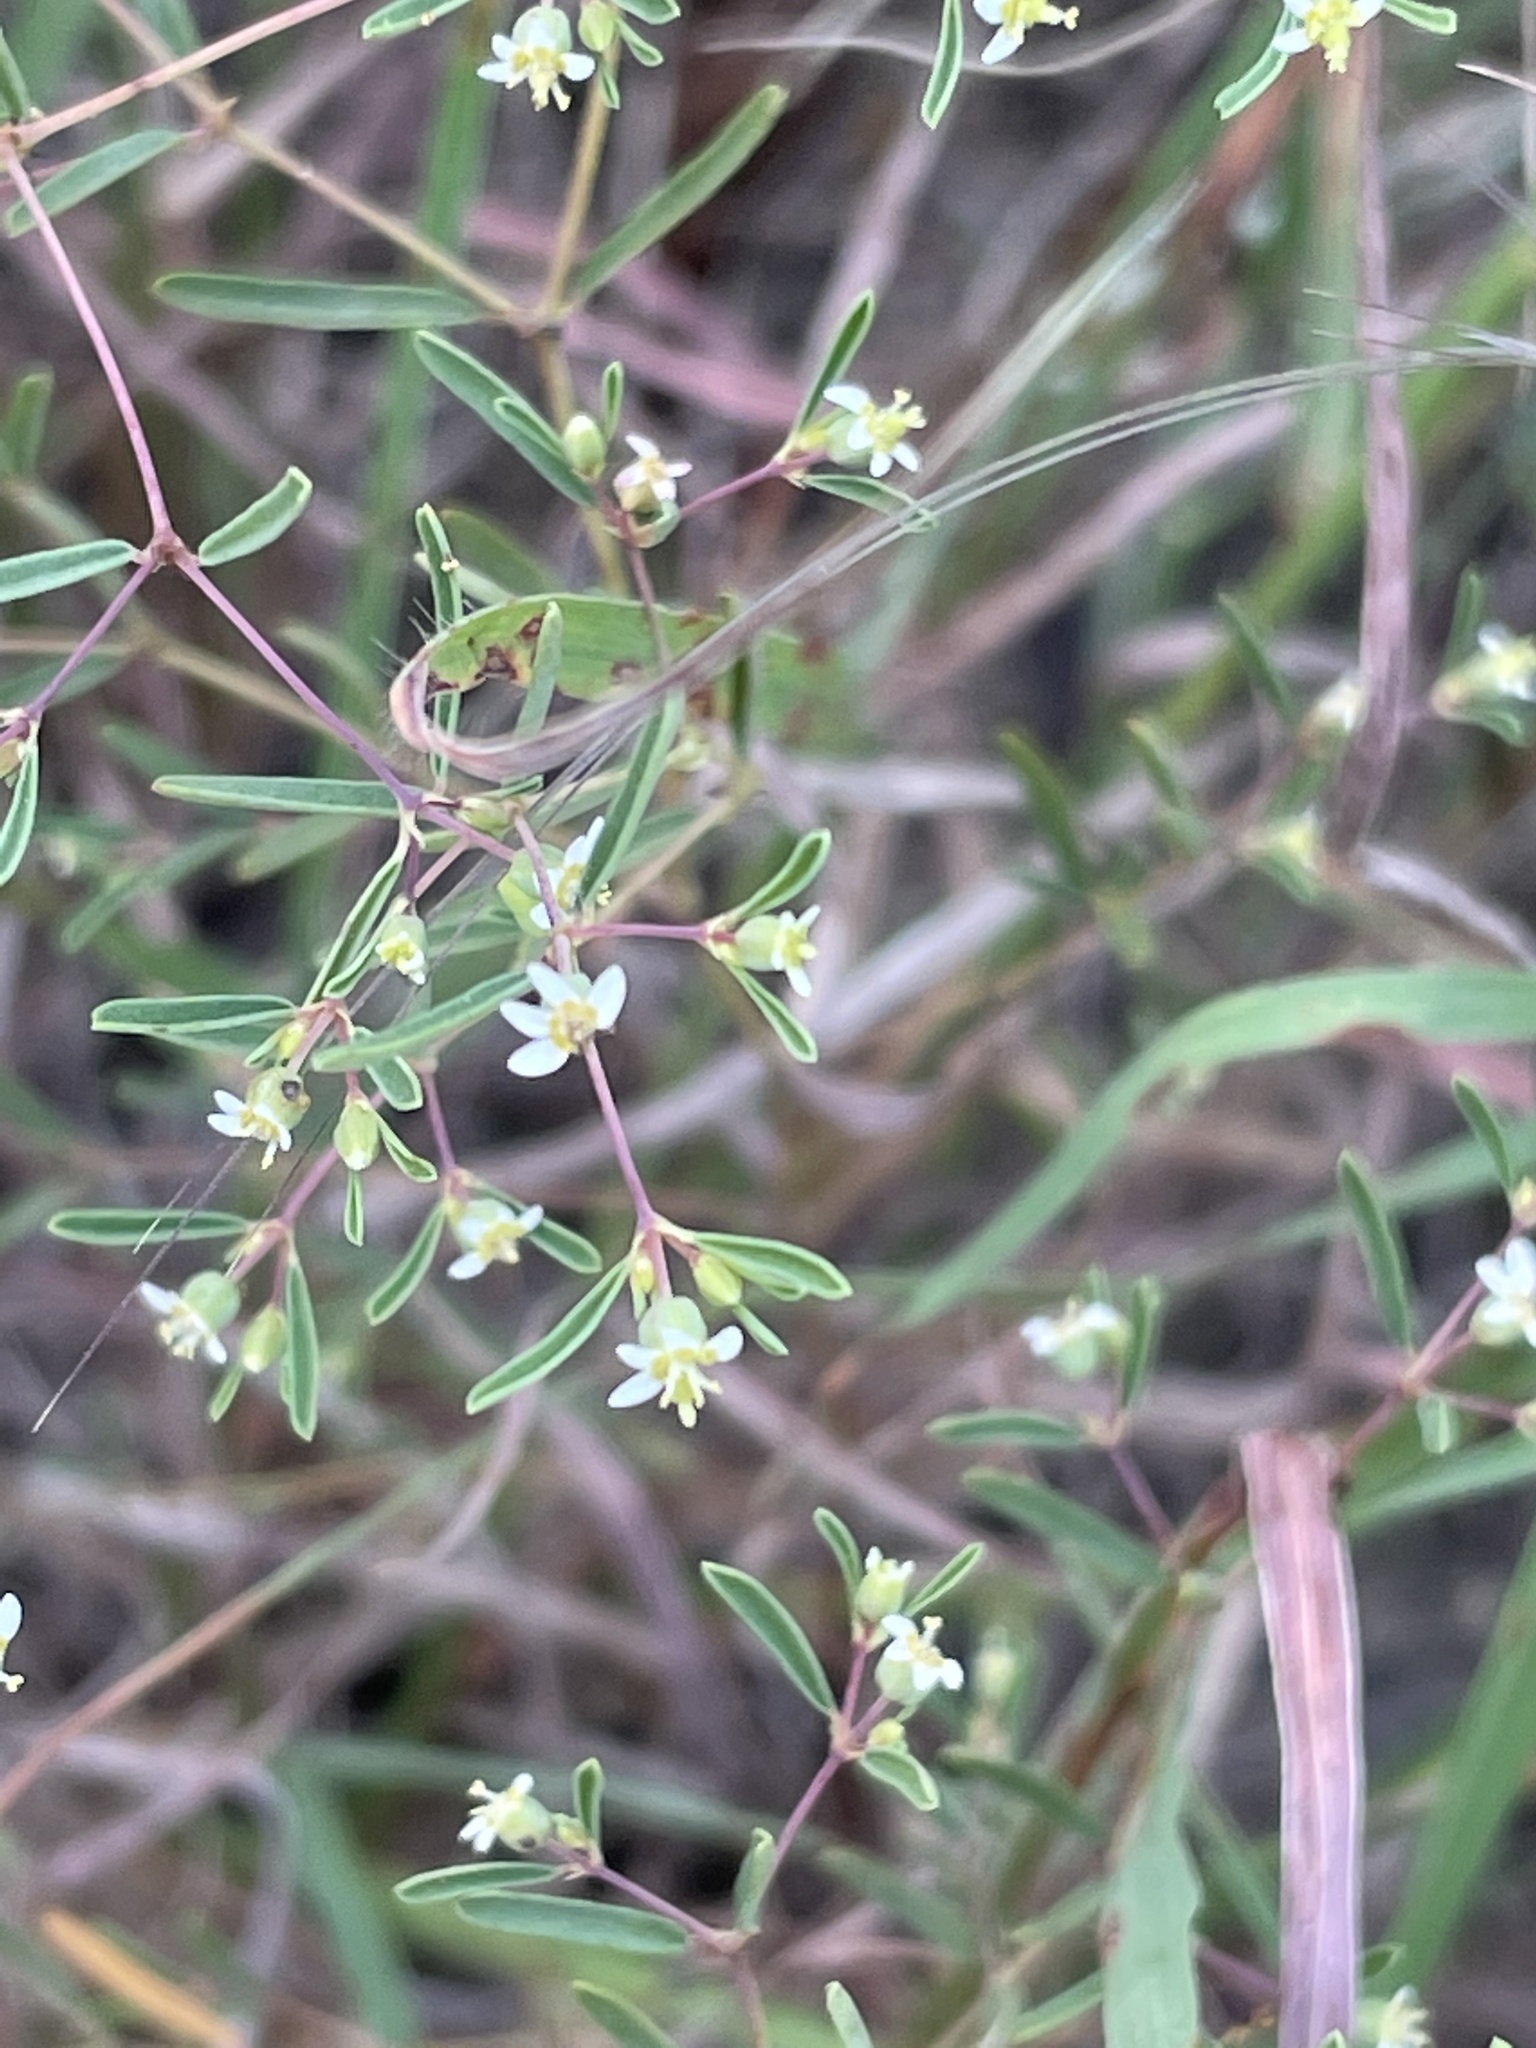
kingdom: Plantae
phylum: Tracheophyta
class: Magnoliopsida
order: Malpighiales
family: Euphorbiaceae
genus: Euphorbia
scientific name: Euphorbia missurica
